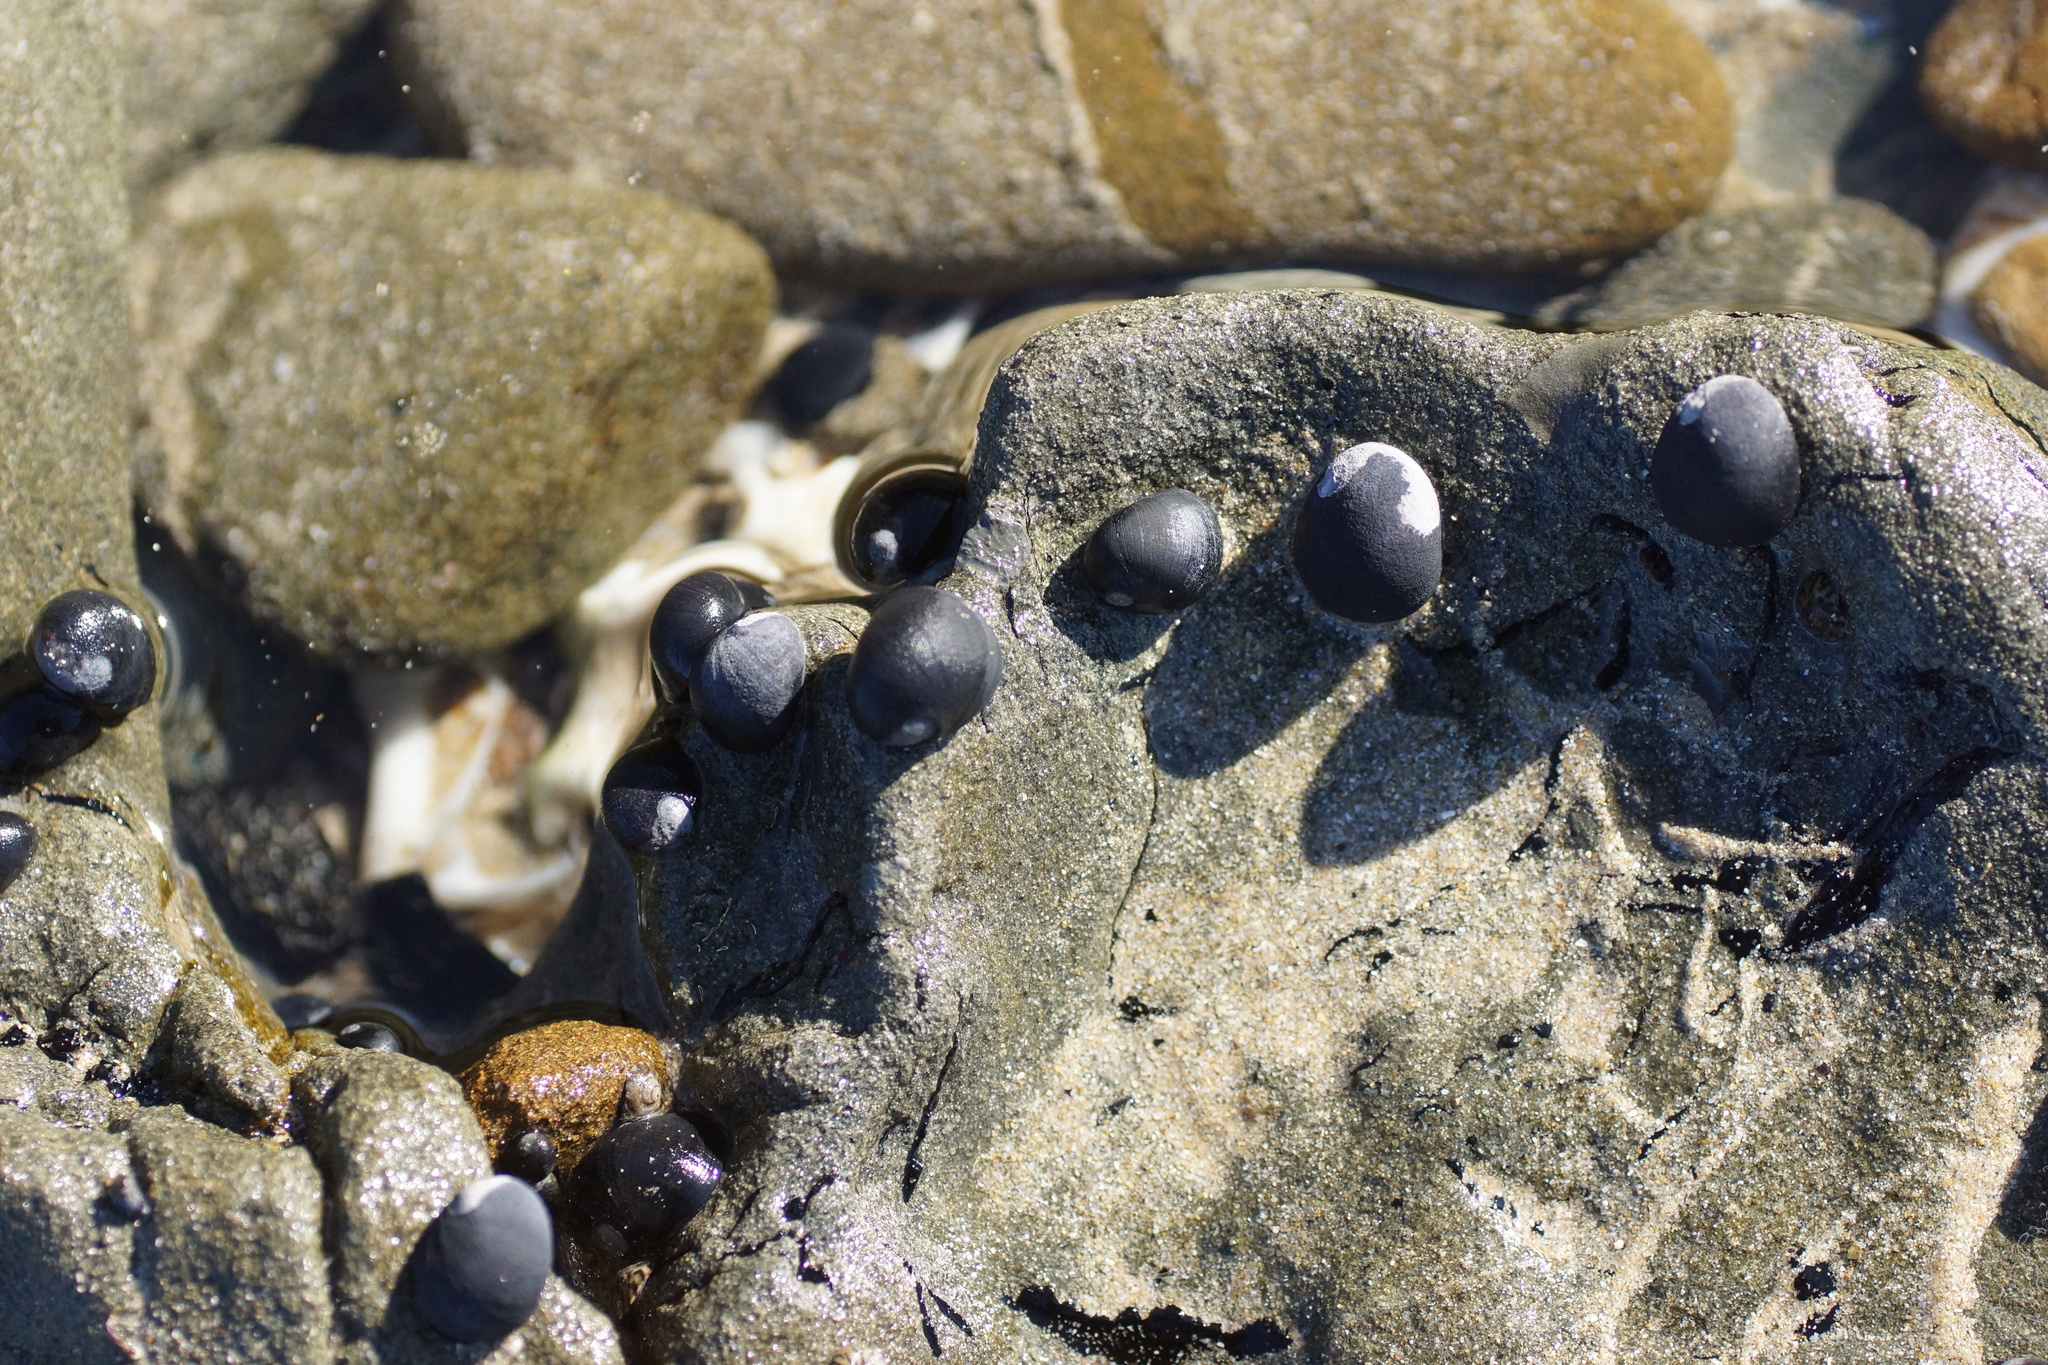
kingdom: Animalia
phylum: Mollusca
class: Gastropoda
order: Cycloneritida
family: Neritidae
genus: Nerita
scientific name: Nerita atramentosa
